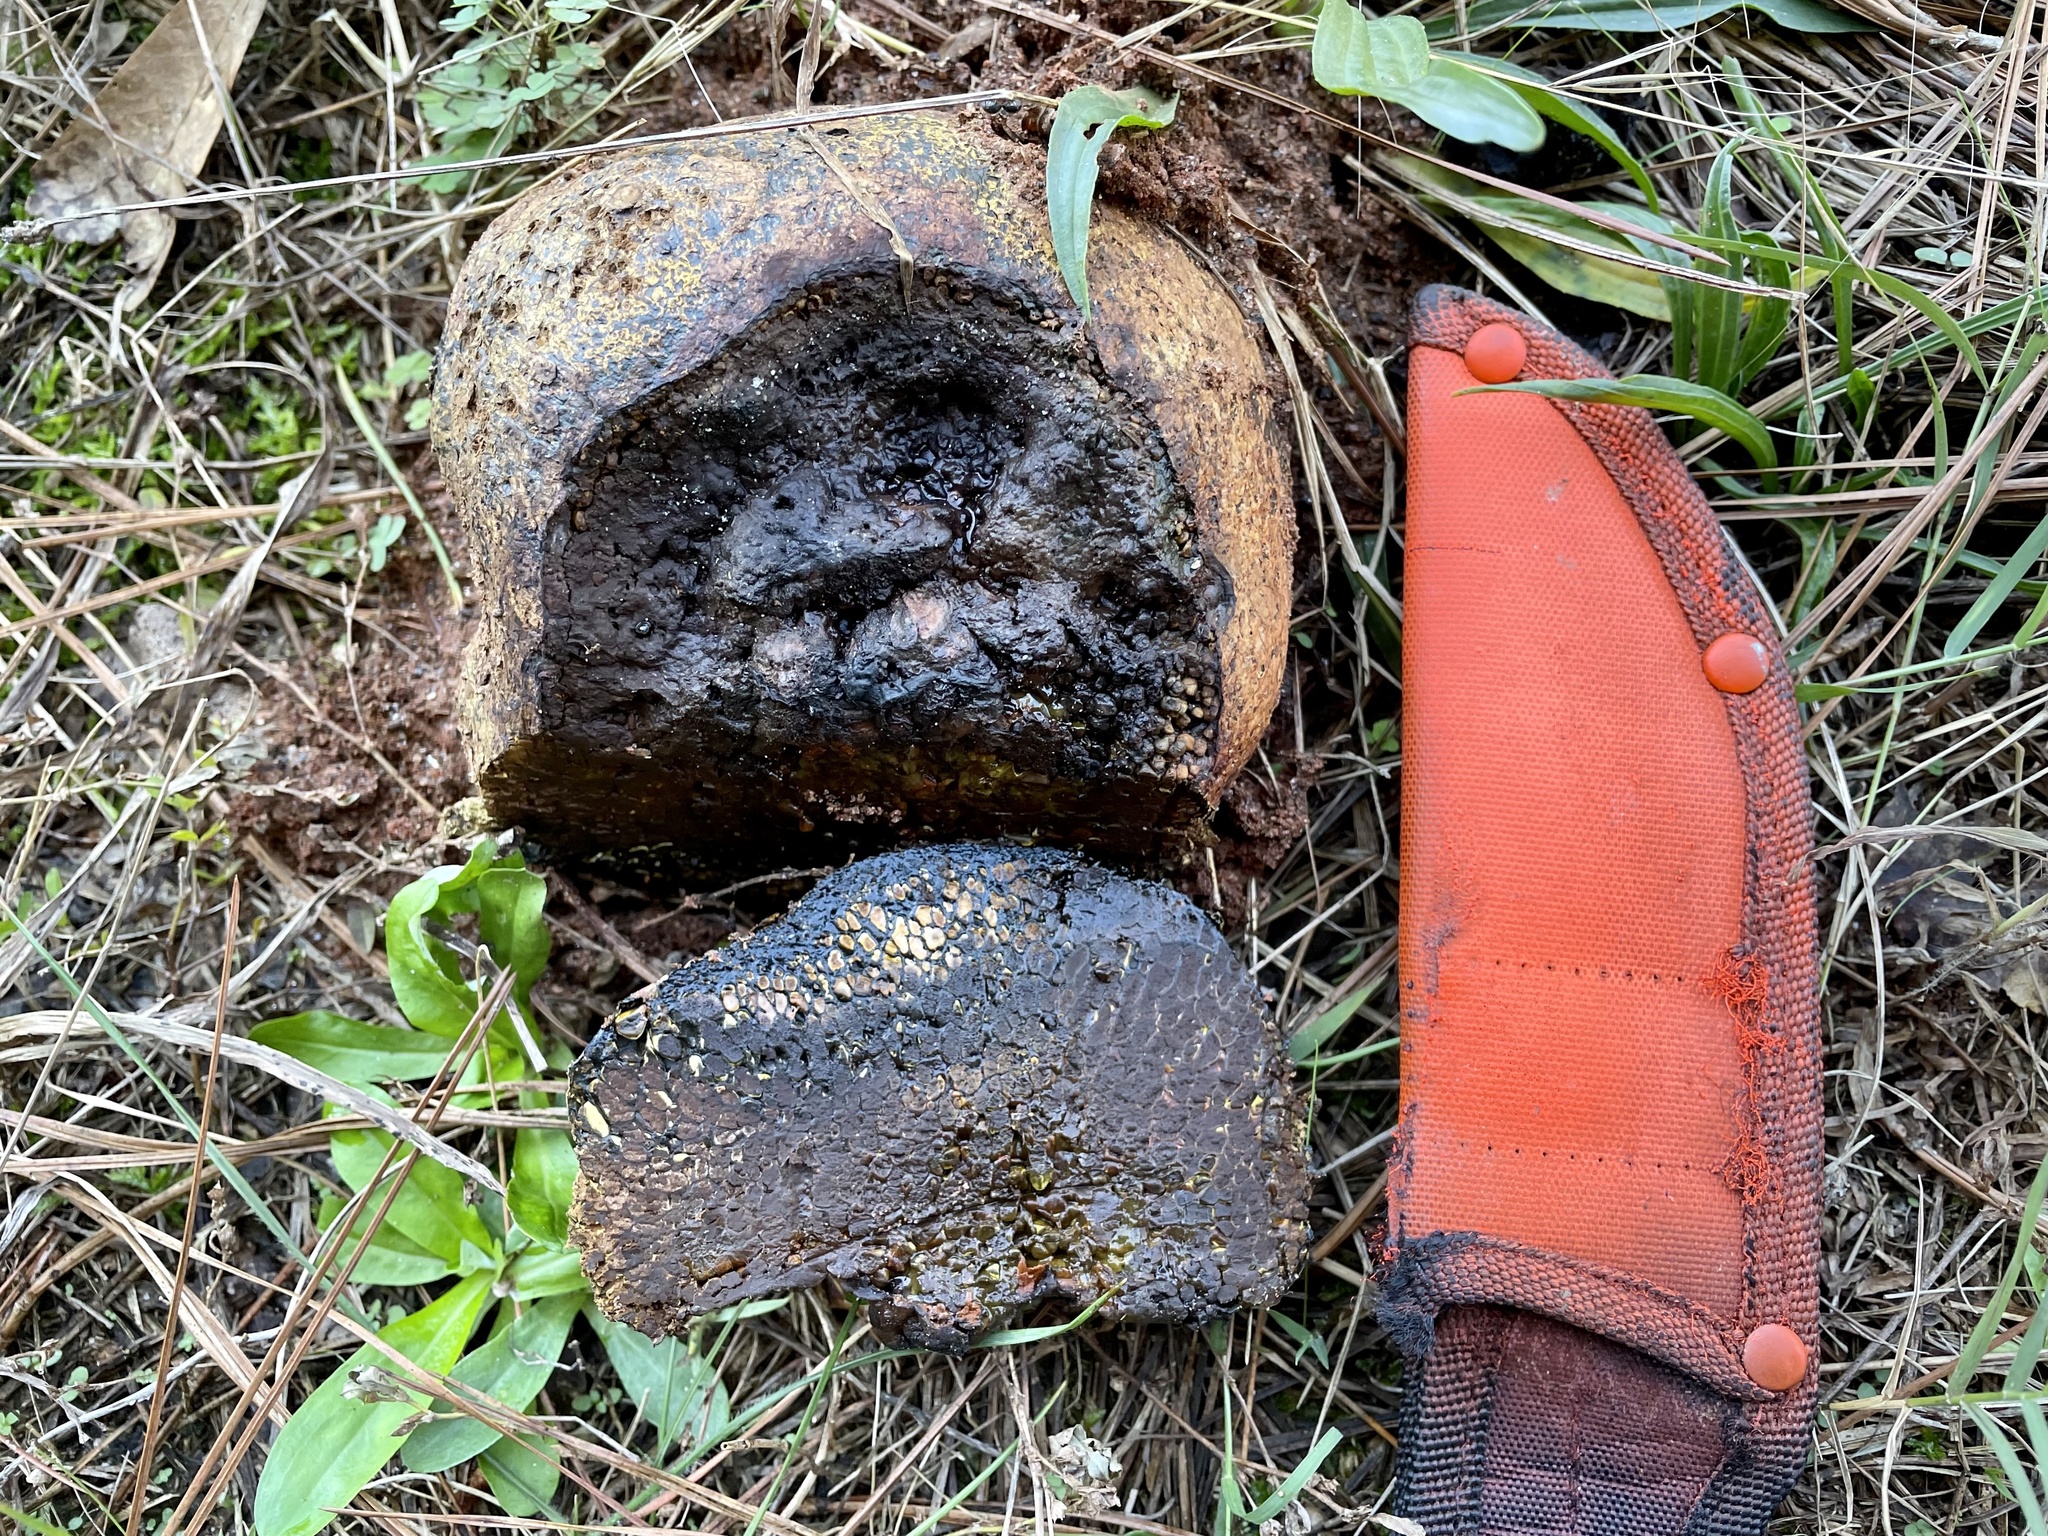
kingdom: Fungi
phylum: Basidiomycota
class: Agaricomycetes
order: Boletales
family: Sclerodermataceae
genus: Pisolithus
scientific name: Pisolithus arhizus
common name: Dyeball
